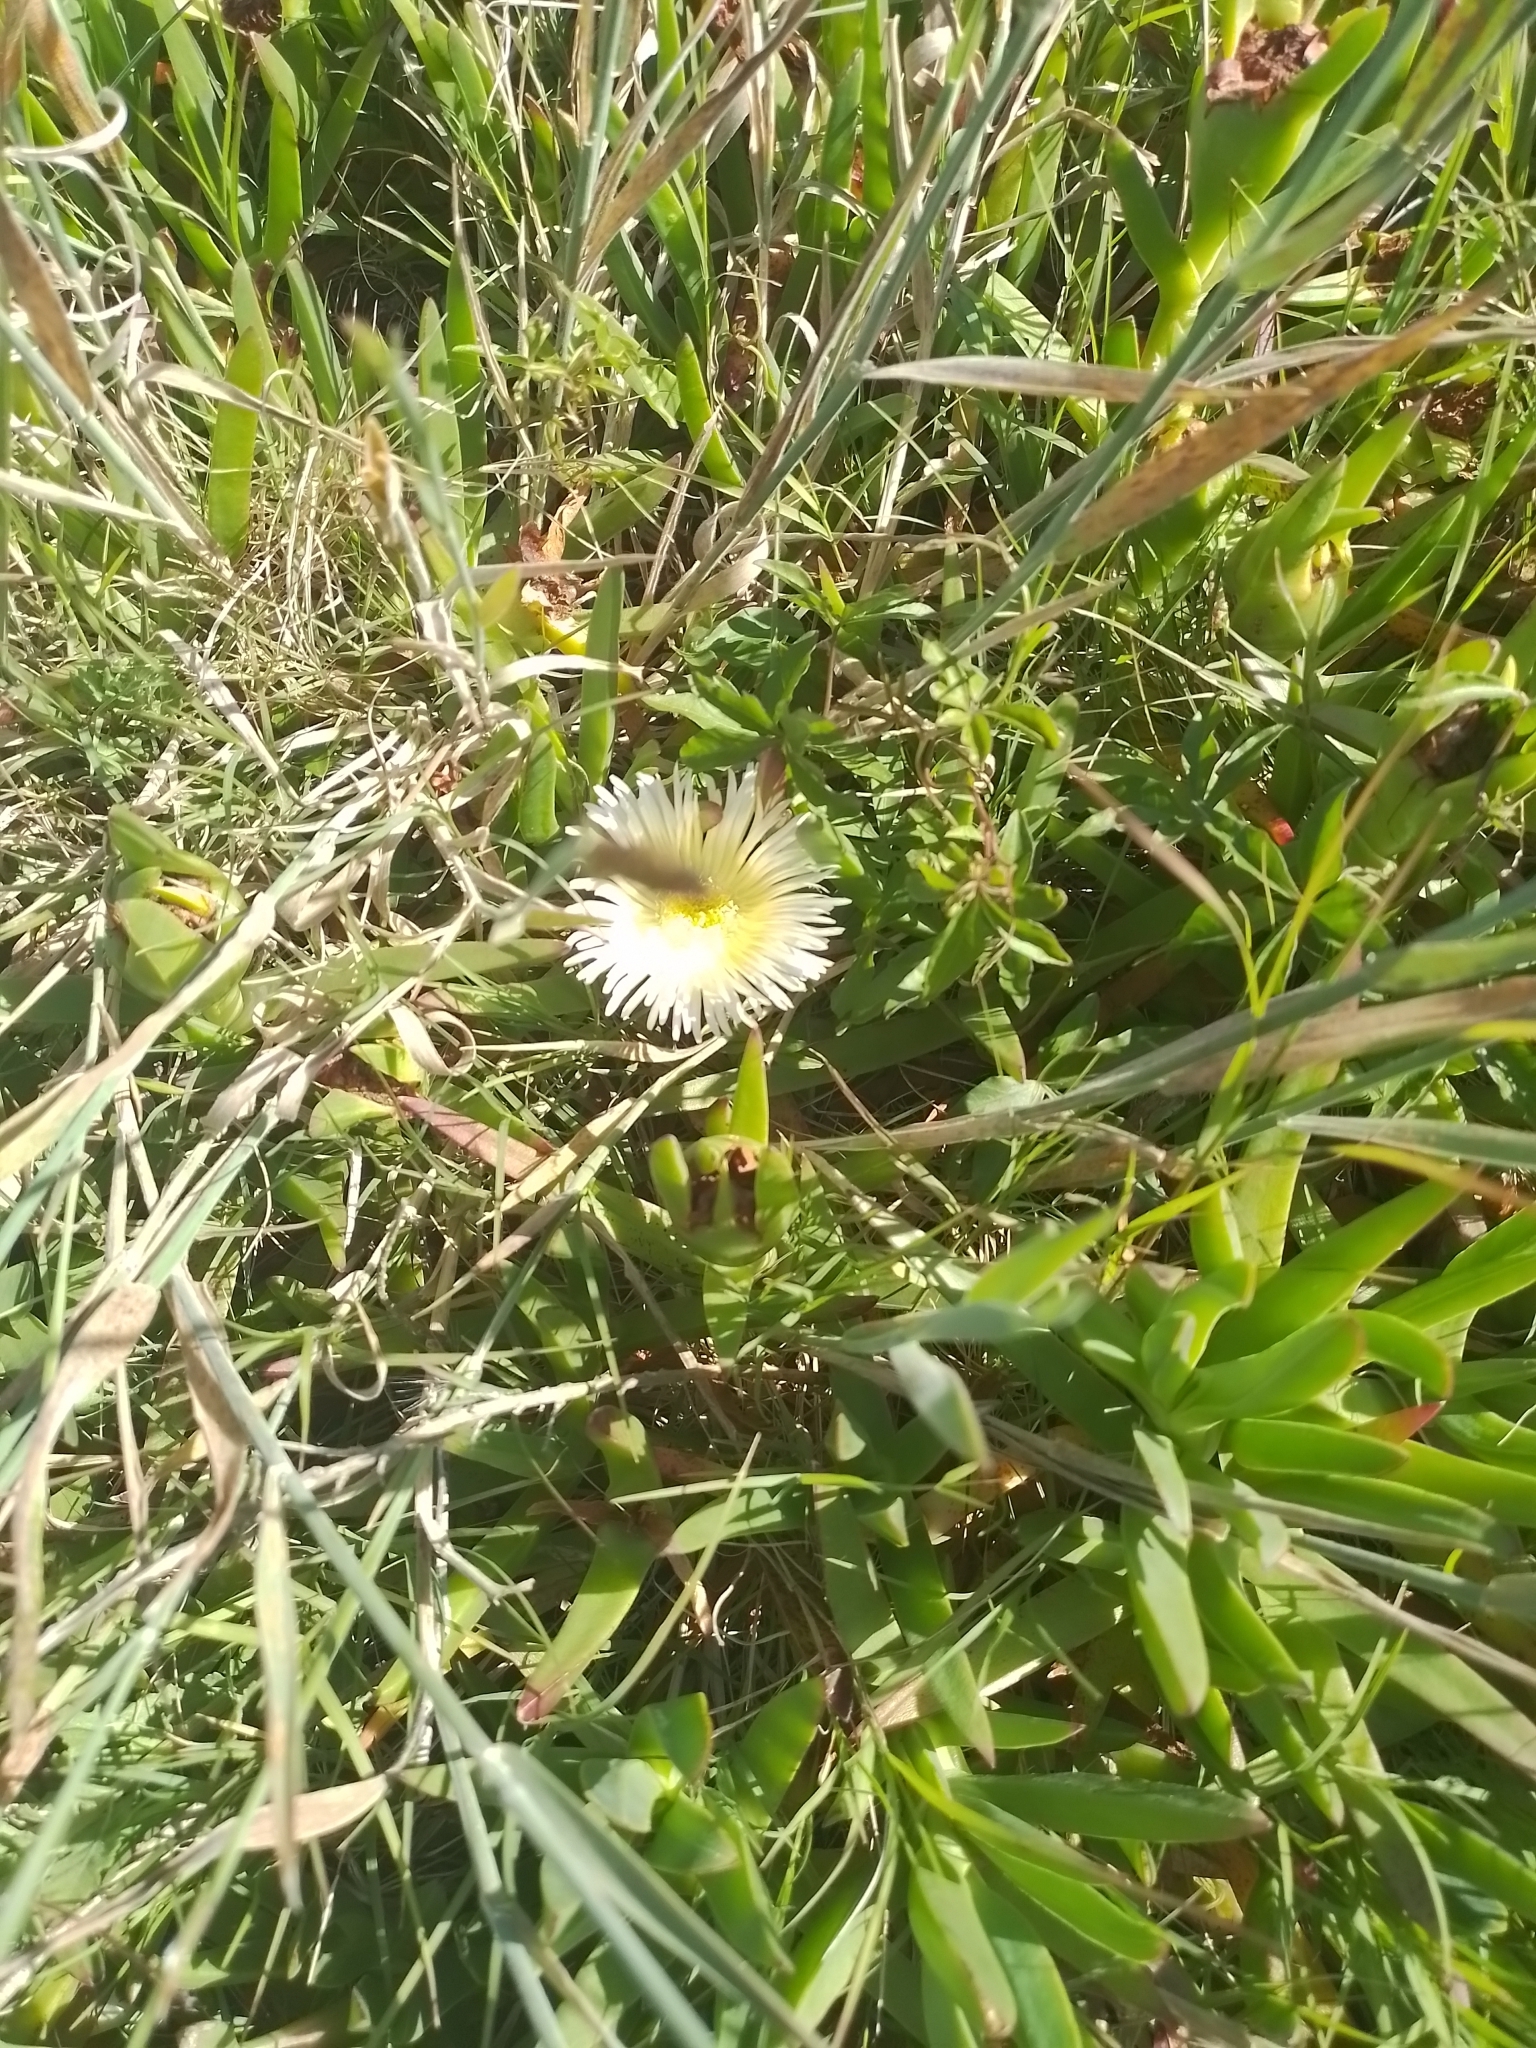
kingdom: Plantae
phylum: Tracheophyta
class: Magnoliopsida
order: Caryophyllales
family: Aizoaceae
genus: Carpobrotus
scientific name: Carpobrotus edulis
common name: Hottentot-fig
